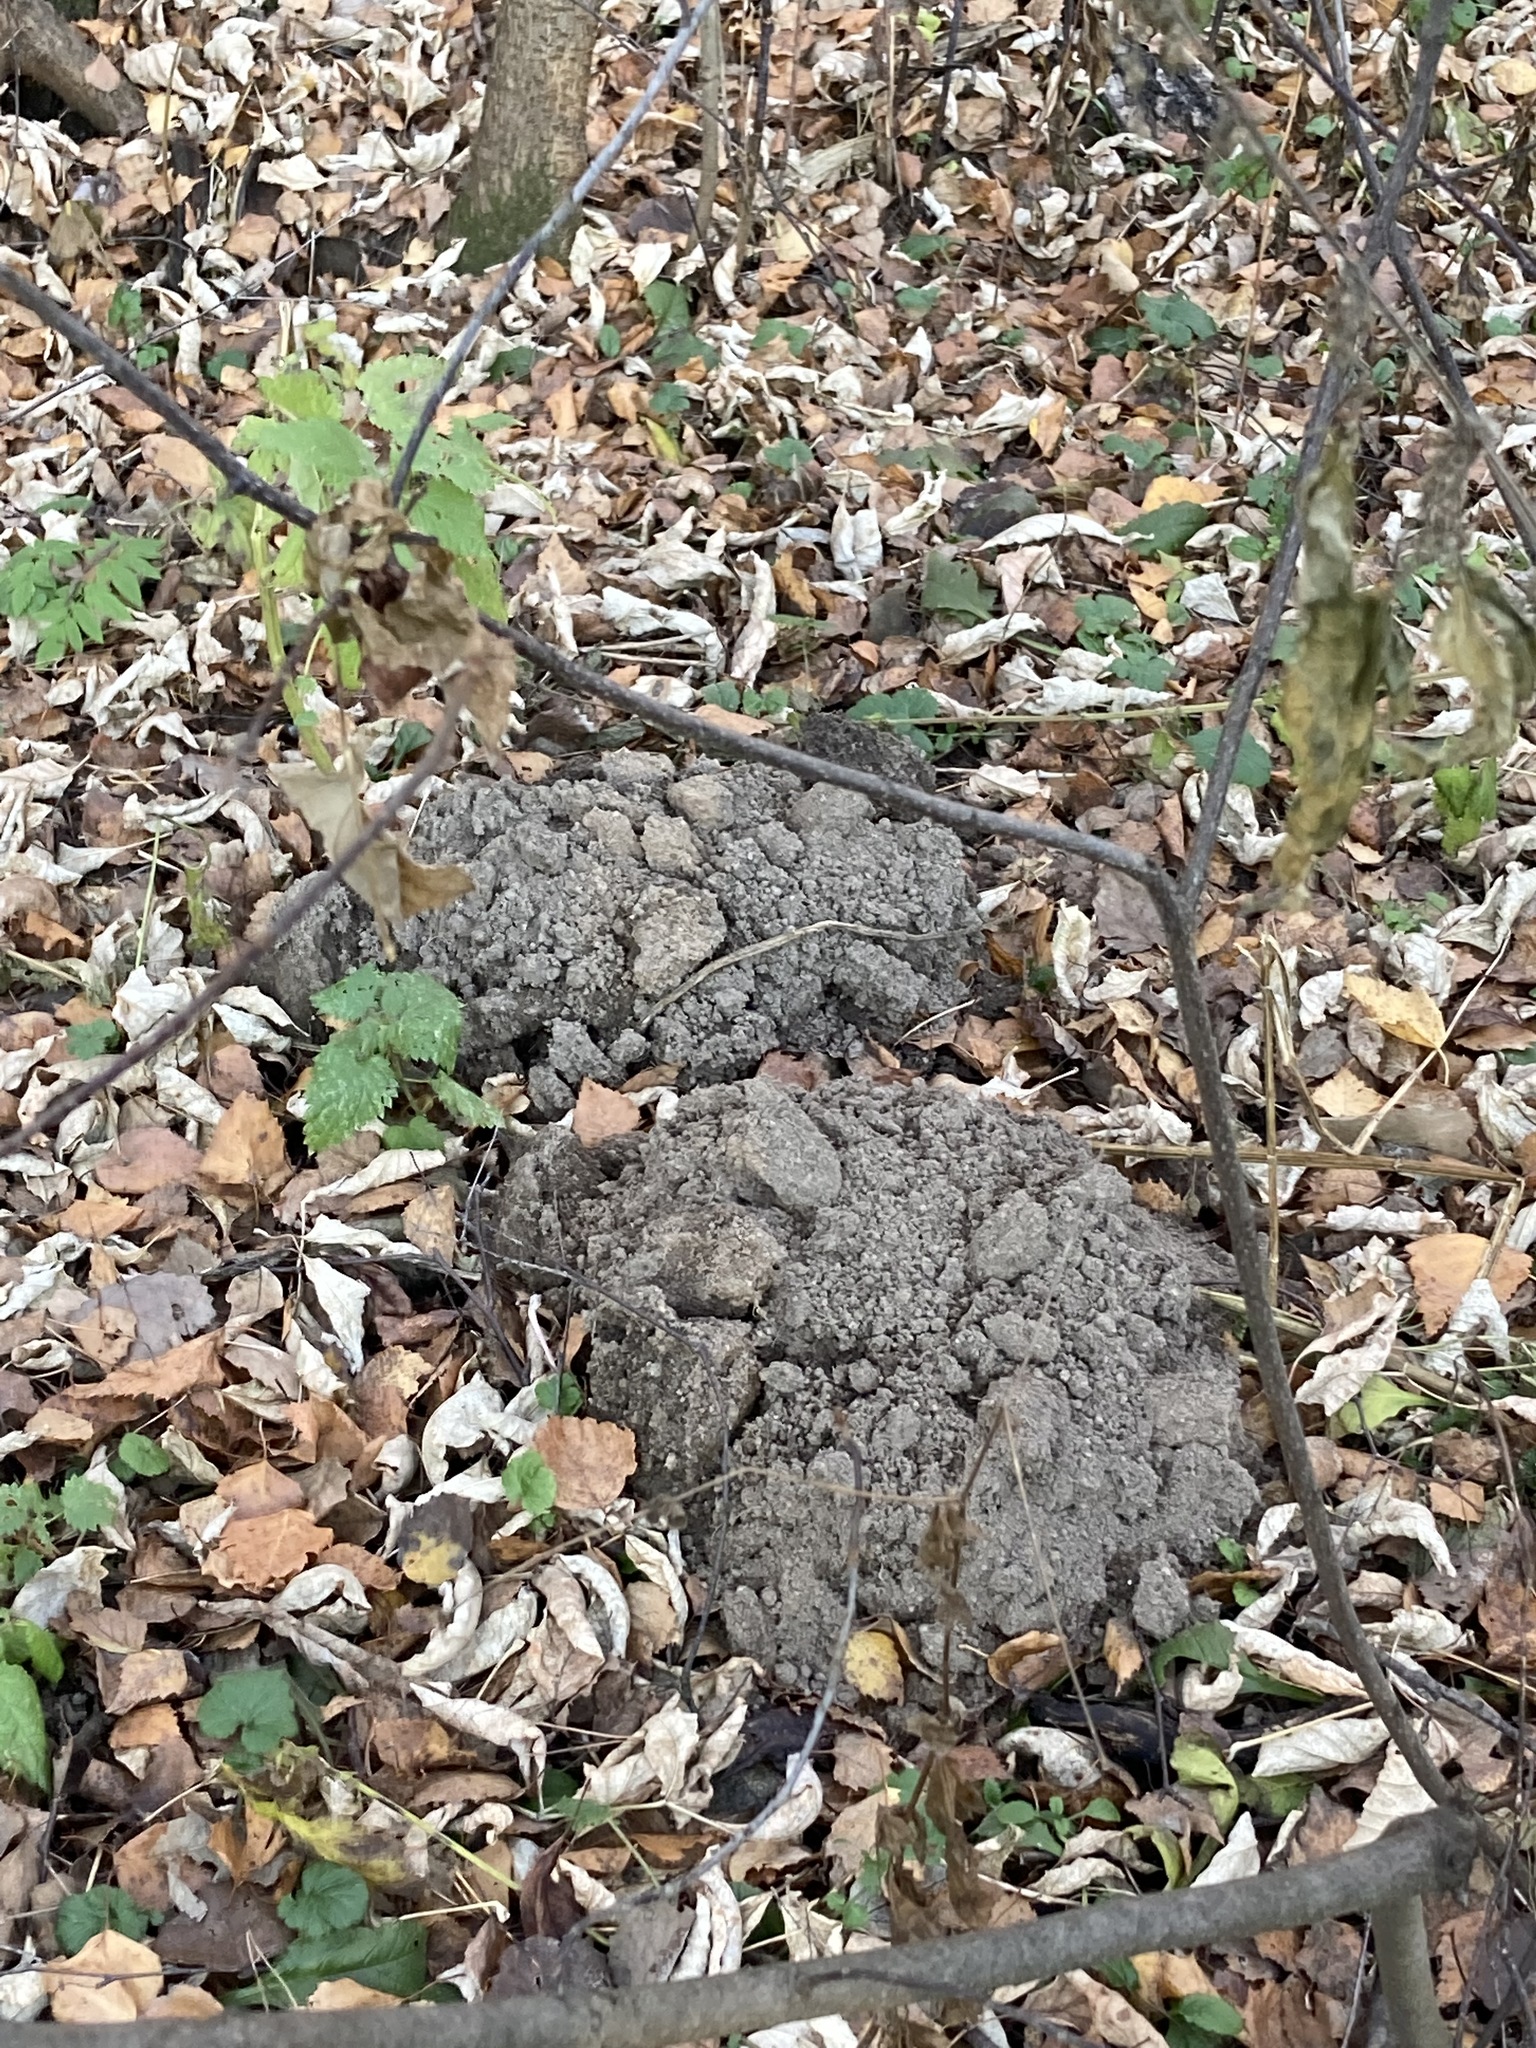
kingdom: Animalia
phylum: Chordata
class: Mammalia
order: Soricomorpha
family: Talpidae
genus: Talpa
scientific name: Talpa europaea
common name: European mole
